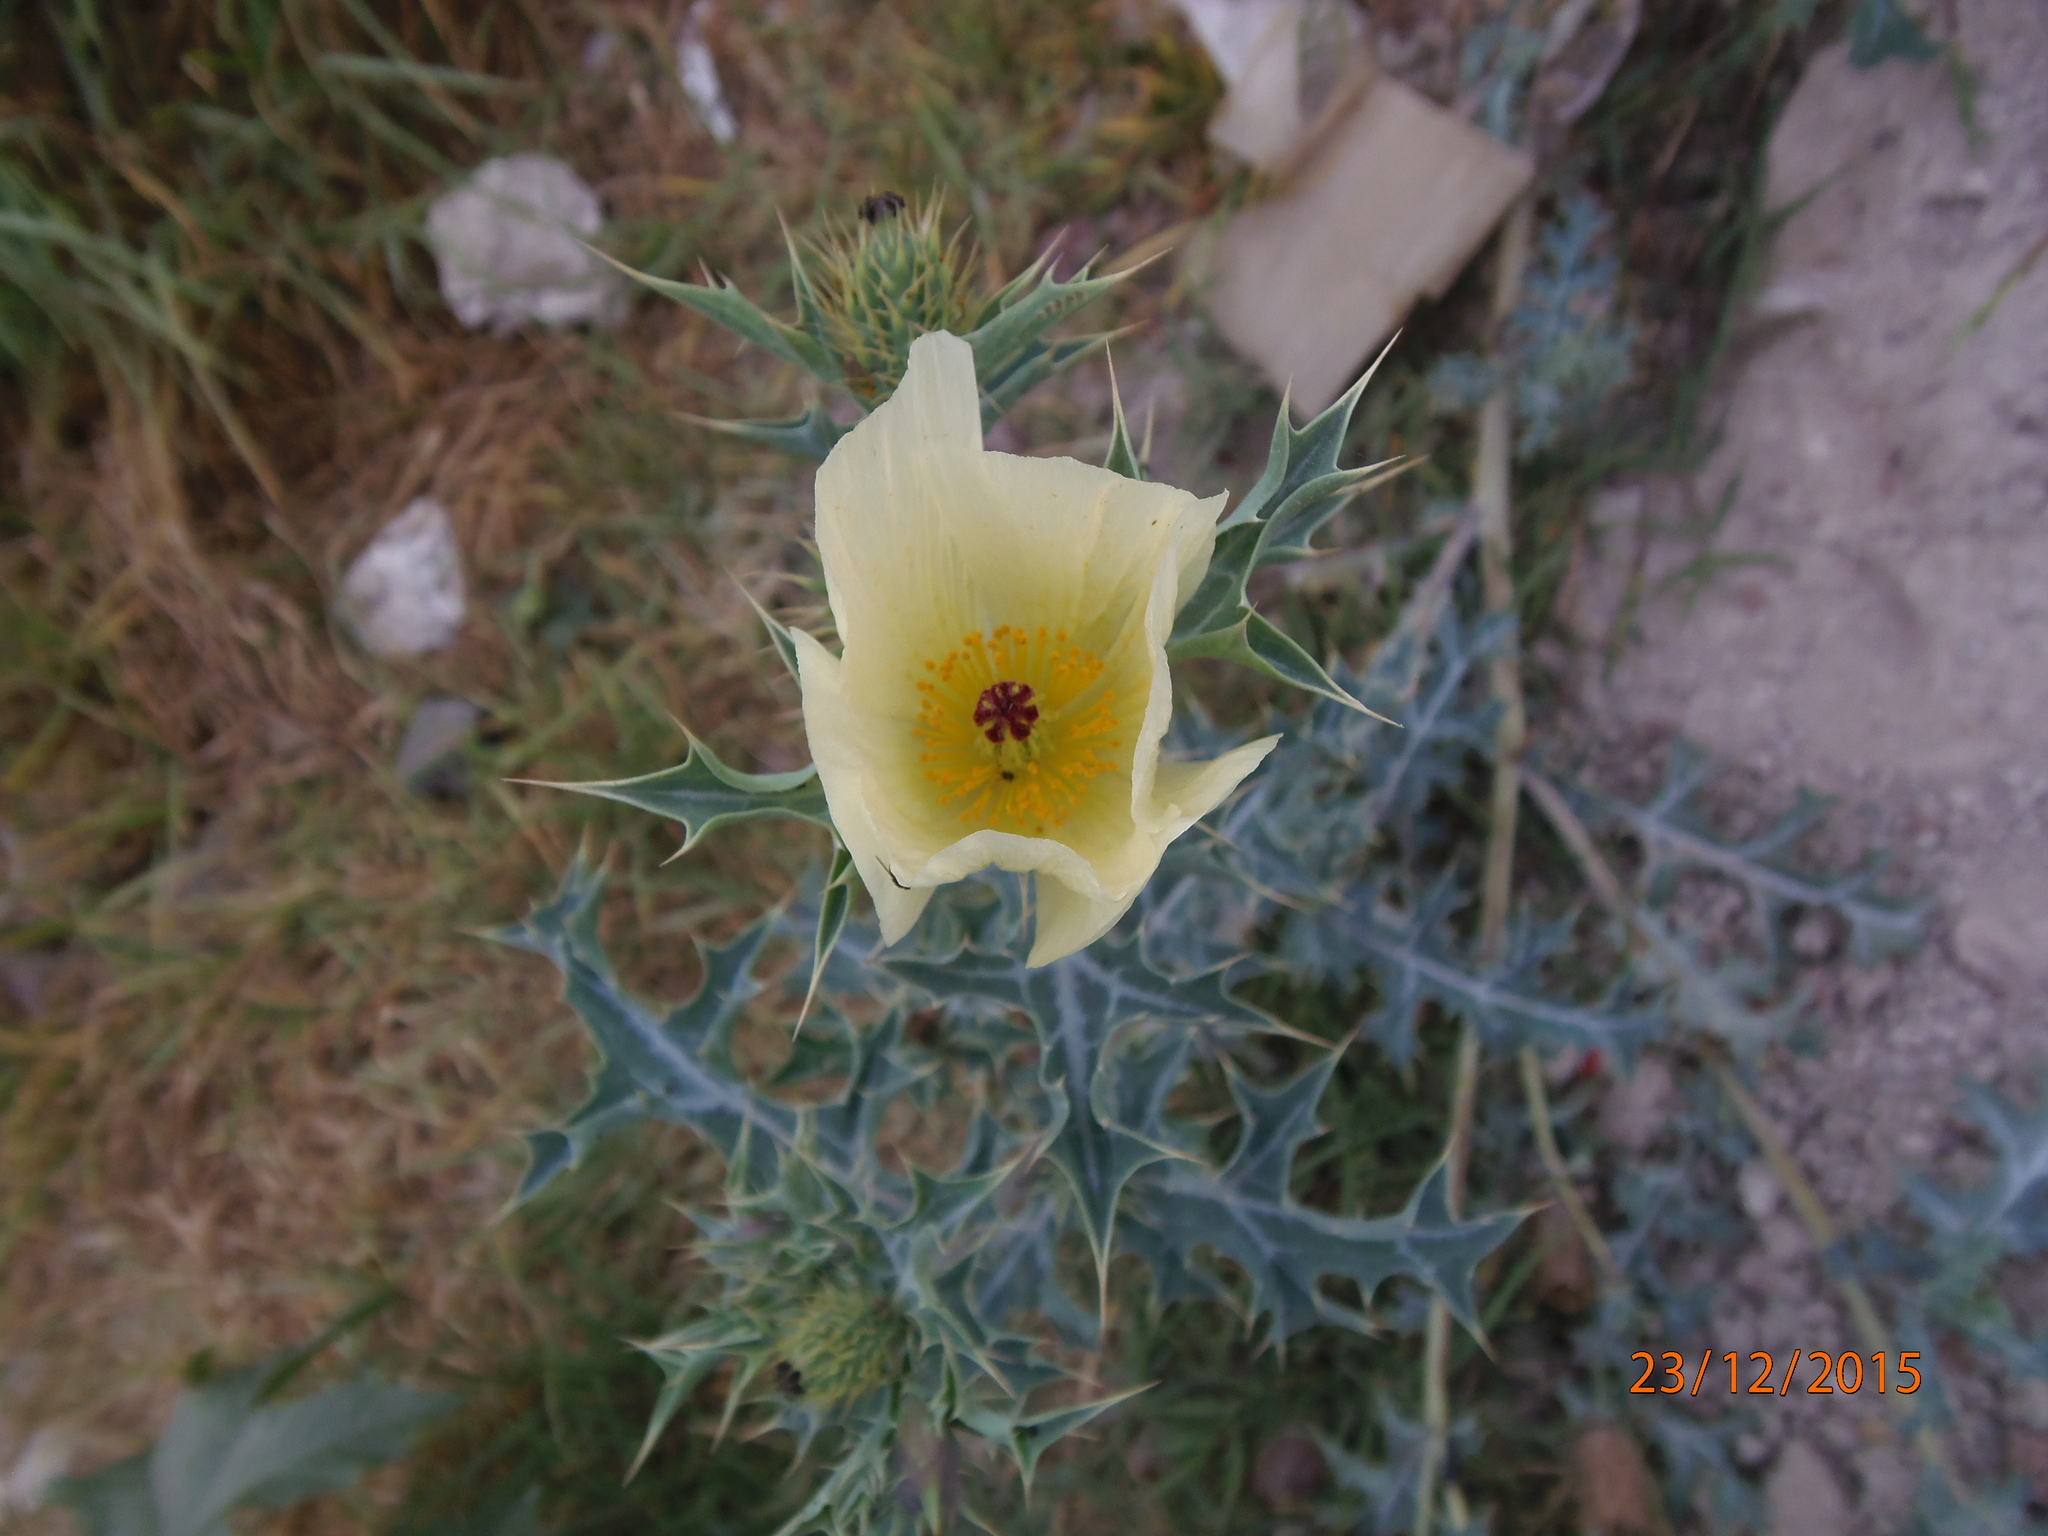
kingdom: Plantae
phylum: Tracheophyta
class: Magnoliopsida
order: Ranunculales
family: Papaveraceae
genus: Argemone
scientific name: Argemone ochroleuca
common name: White-flower mexican-poppy
